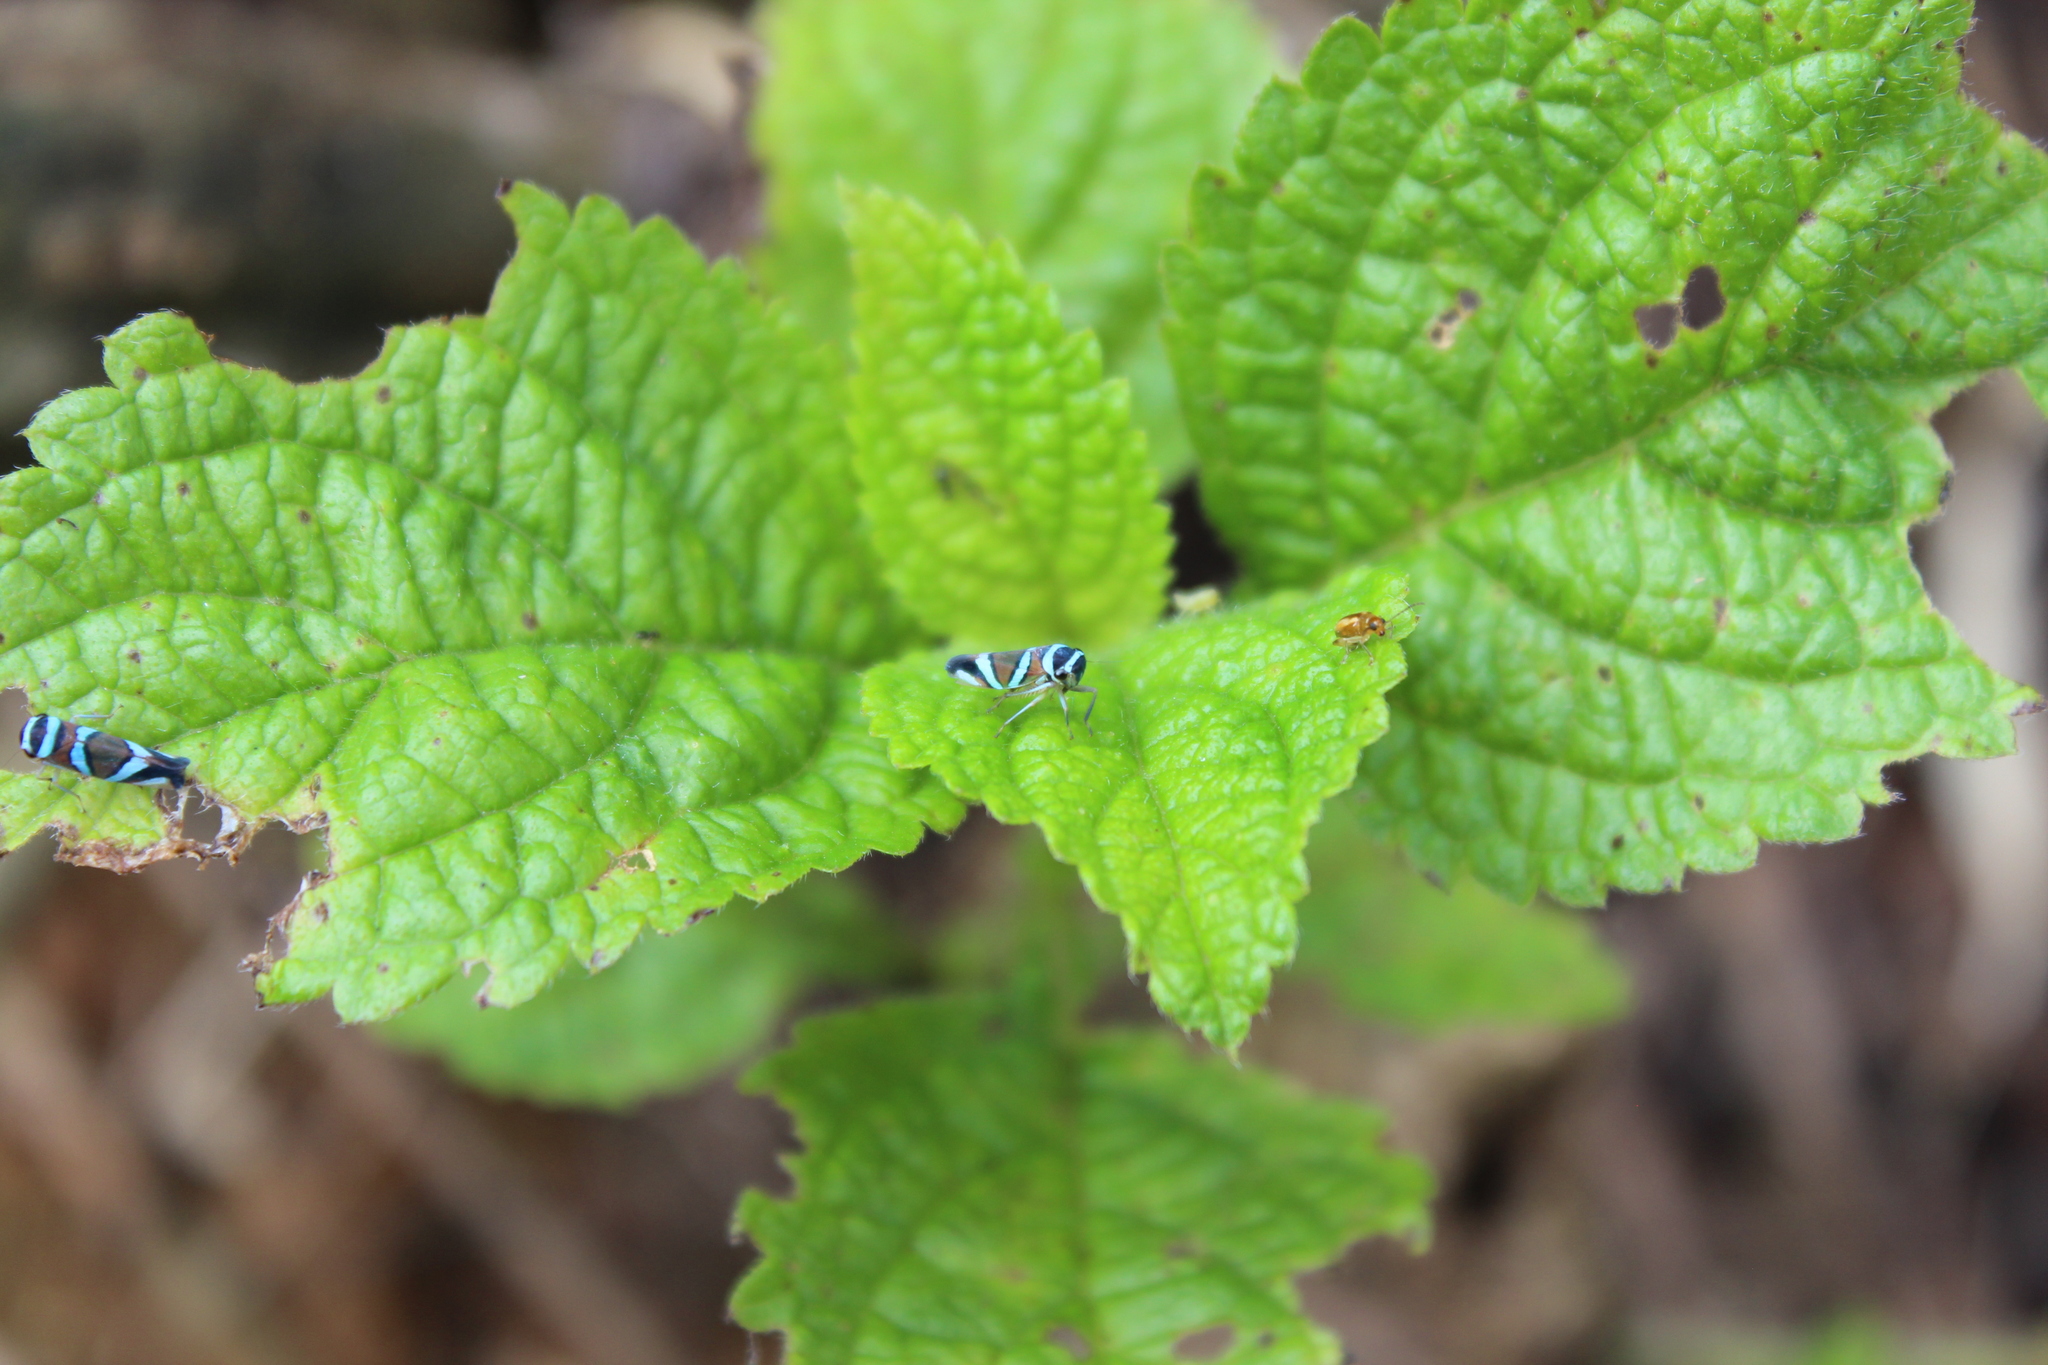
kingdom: Animalia
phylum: Arthropoda
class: Insecta
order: Hemiptera
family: Cicadellidae
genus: Macugonalia
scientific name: Macugonalia moesta
